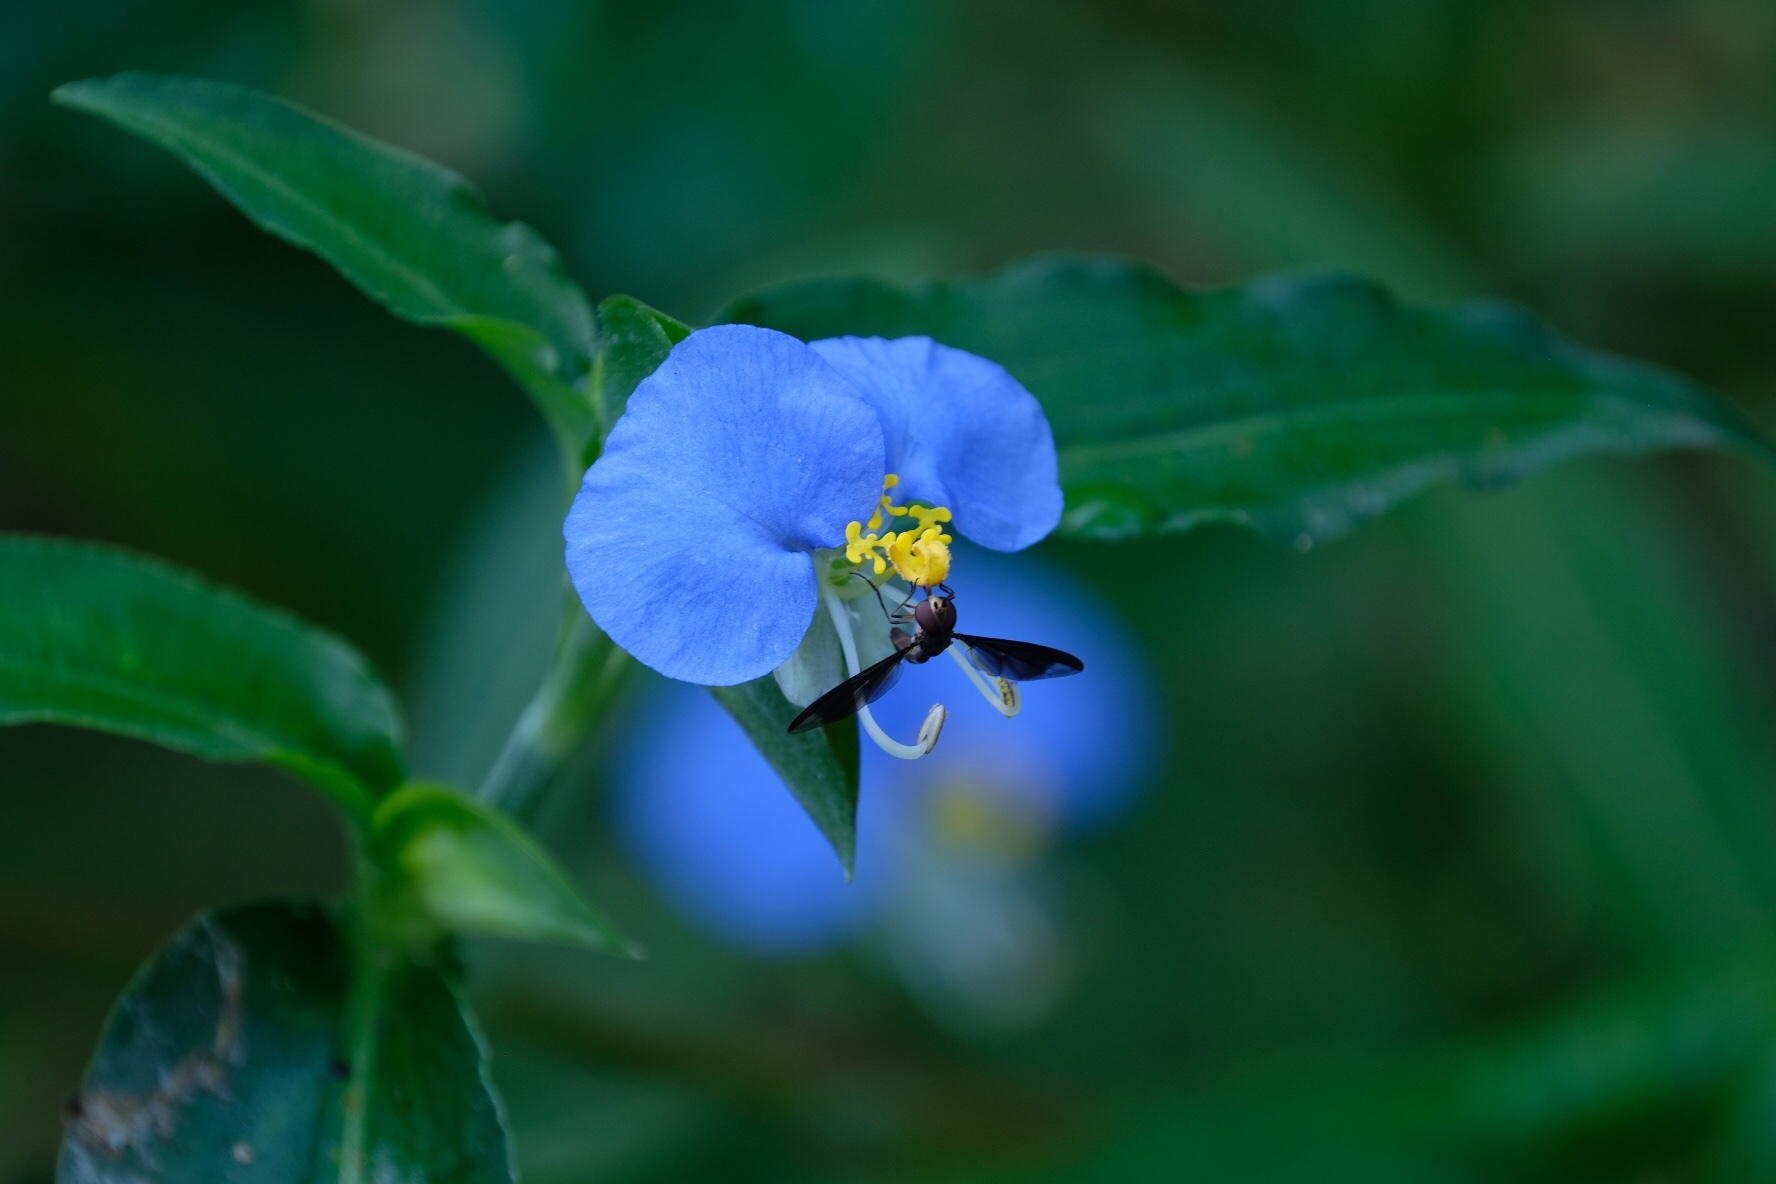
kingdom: Plantae
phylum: Tracheophyta
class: Liliopsida
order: Commelinales
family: Commelinaceae
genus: Commelina
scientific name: Commelina erecta
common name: Blousel blommetjie
